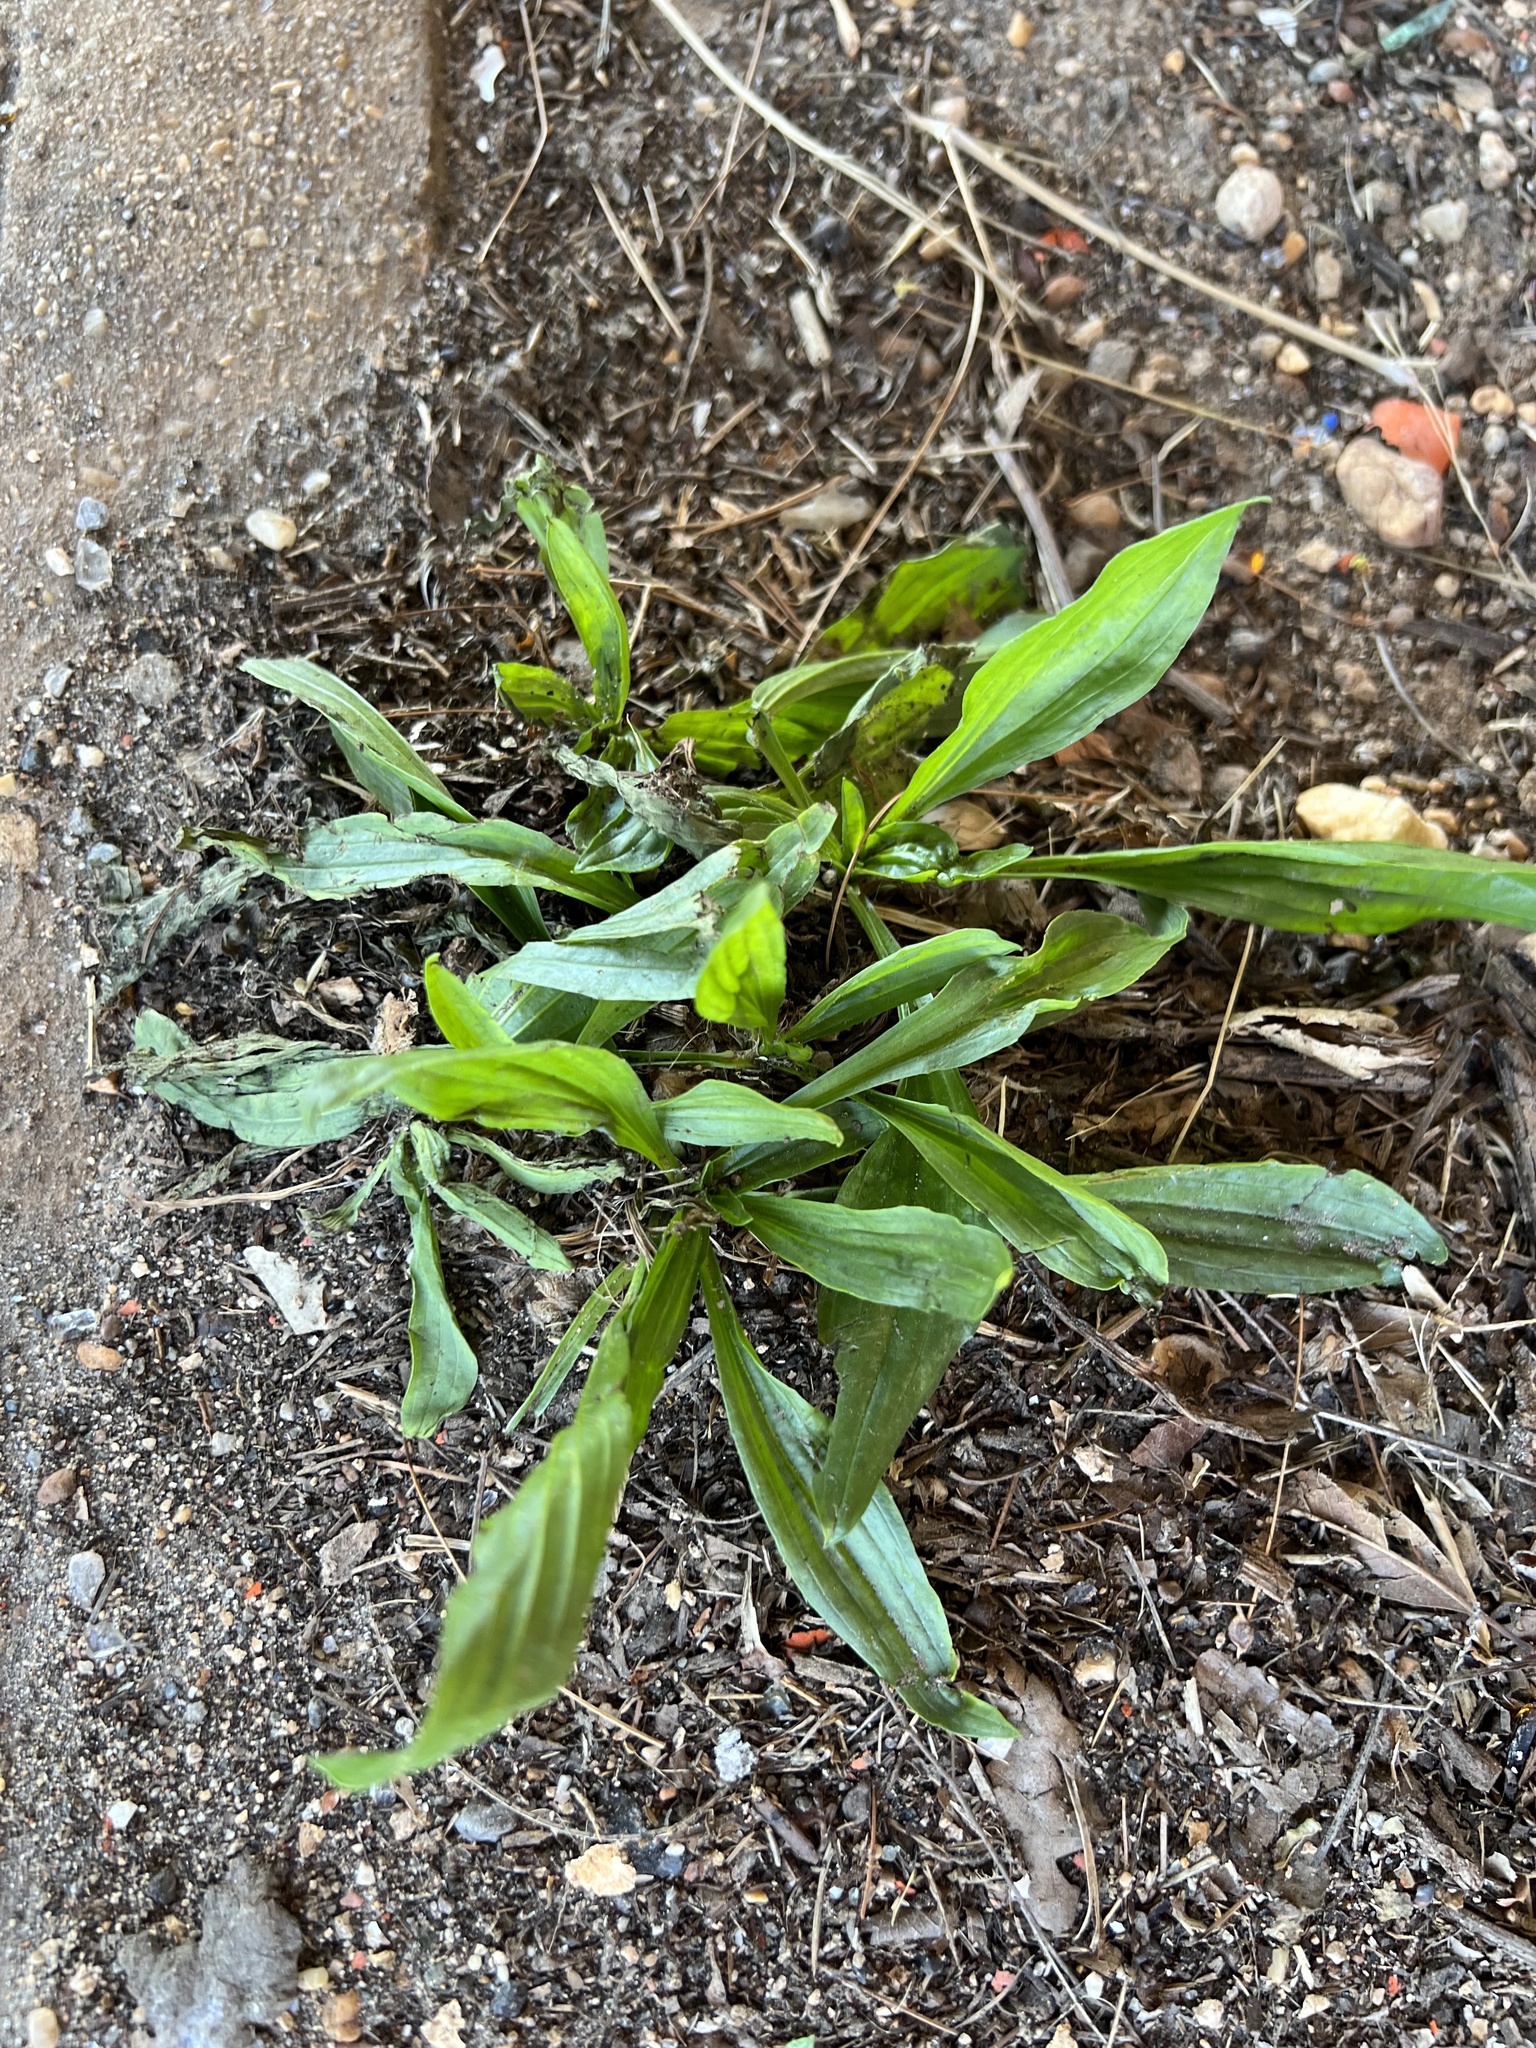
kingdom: Plantae
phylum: Tracheophyta
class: Magnoliopsida
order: Lamiales
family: Plantaginaceae
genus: Plantago
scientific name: Plantago lanceolata
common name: Ribwort plantain
